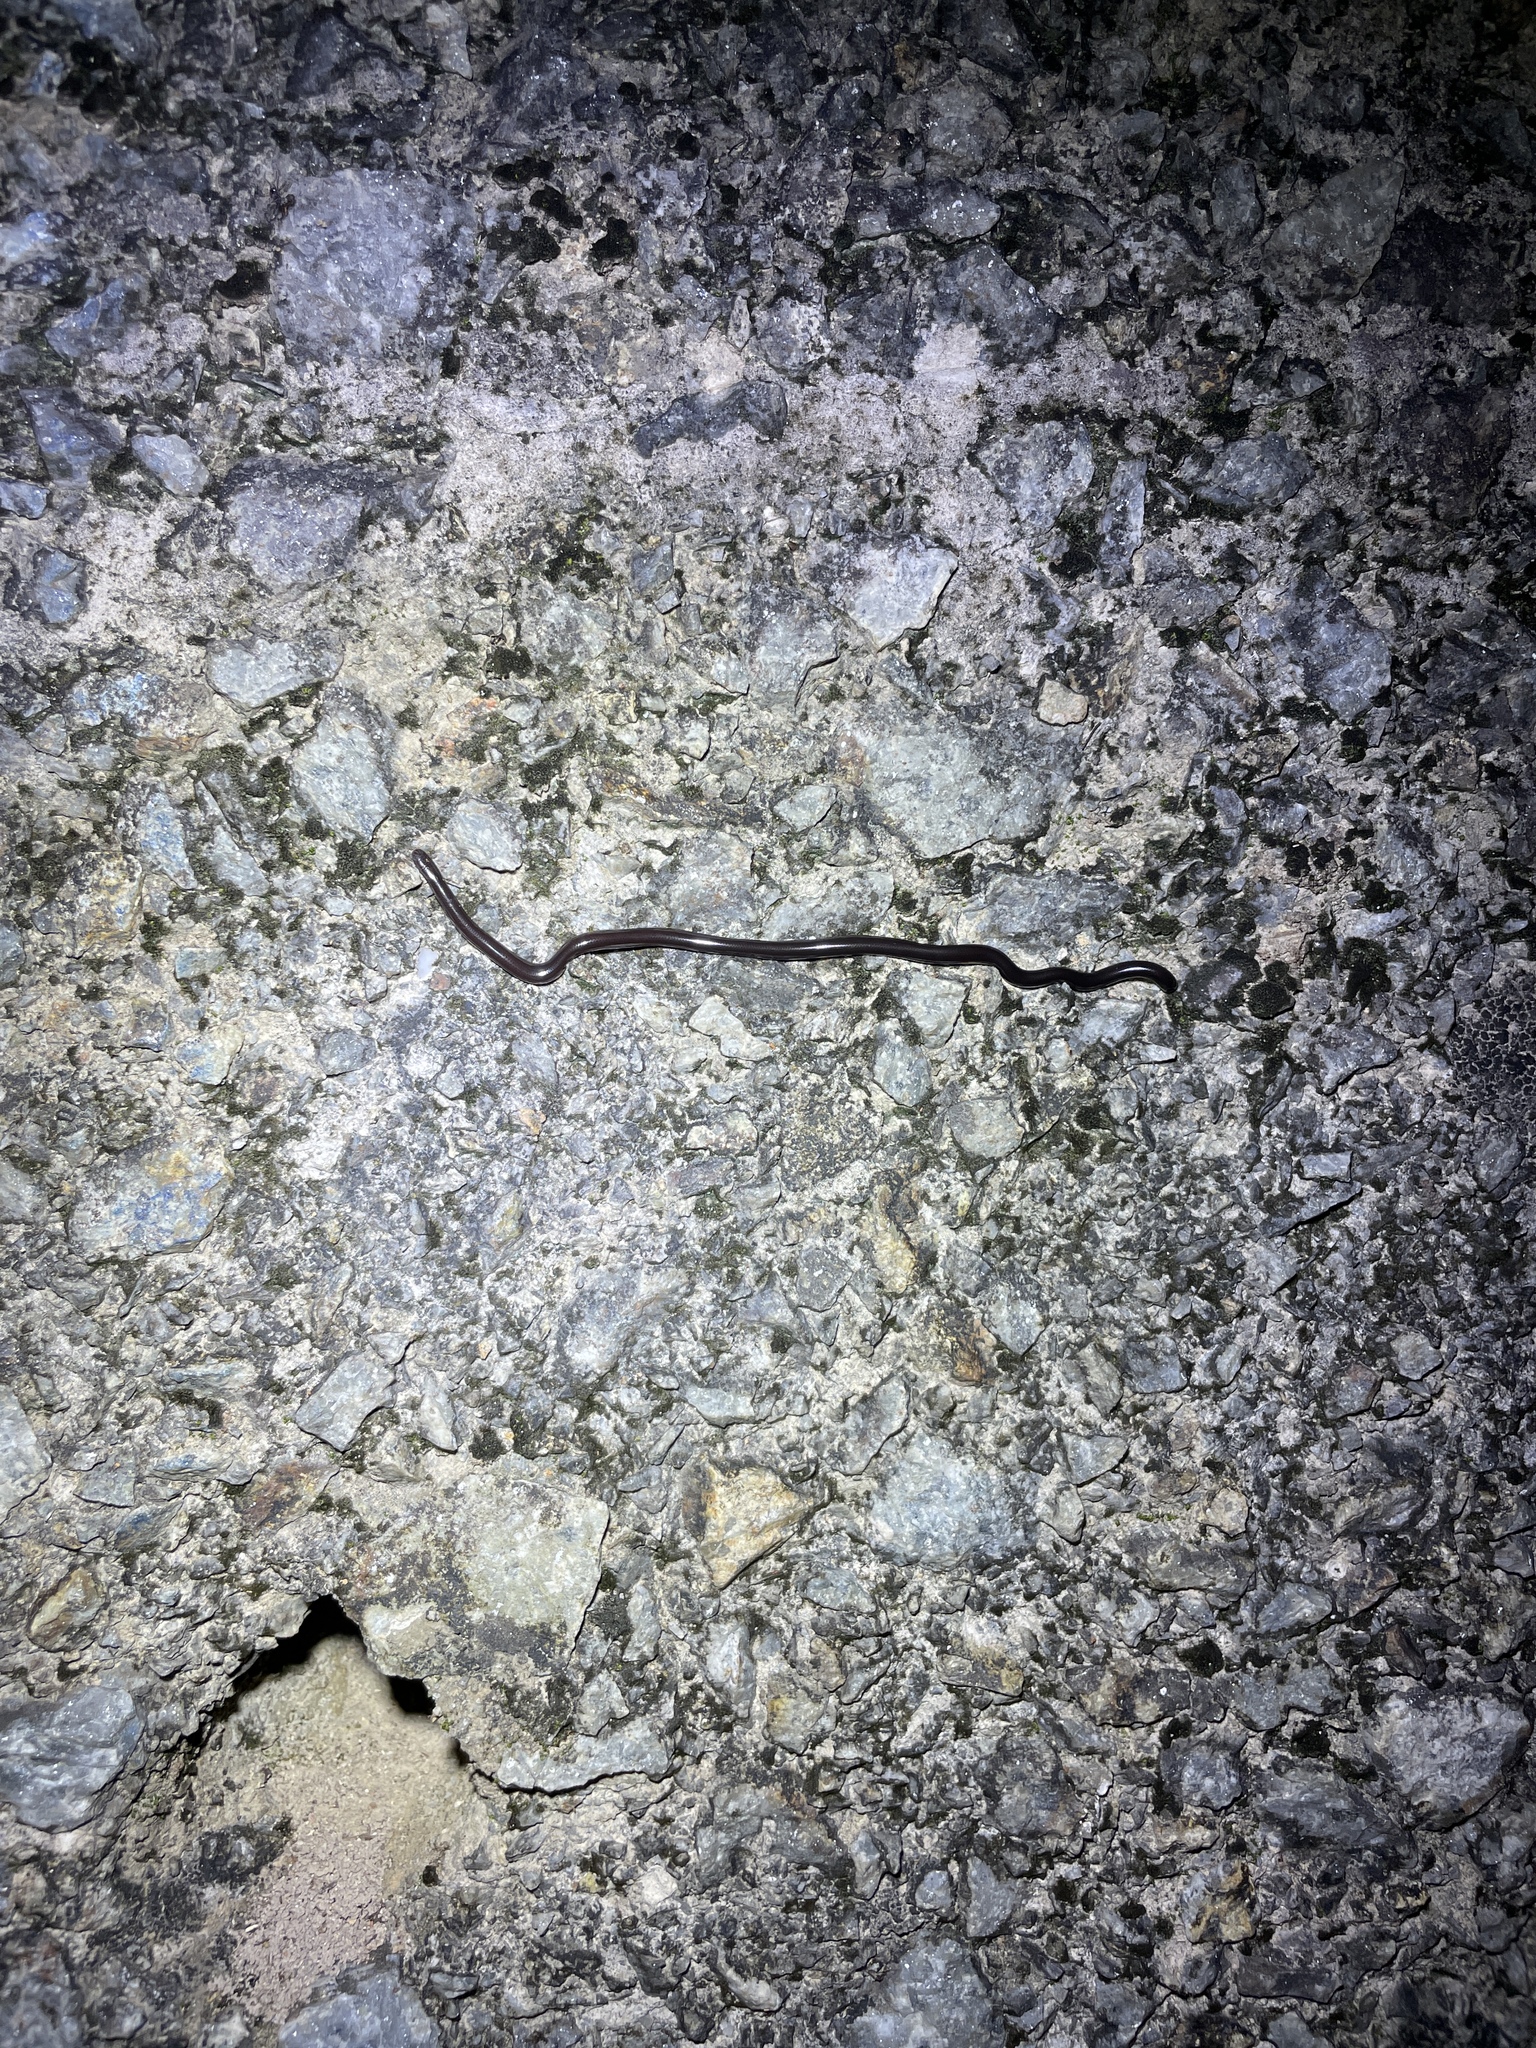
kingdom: Animalia
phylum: Chordata
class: Squamata
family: Typhlopidae
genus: Indotyphlops
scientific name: Indotyphlops braminus
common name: Brahminy blindsnake
